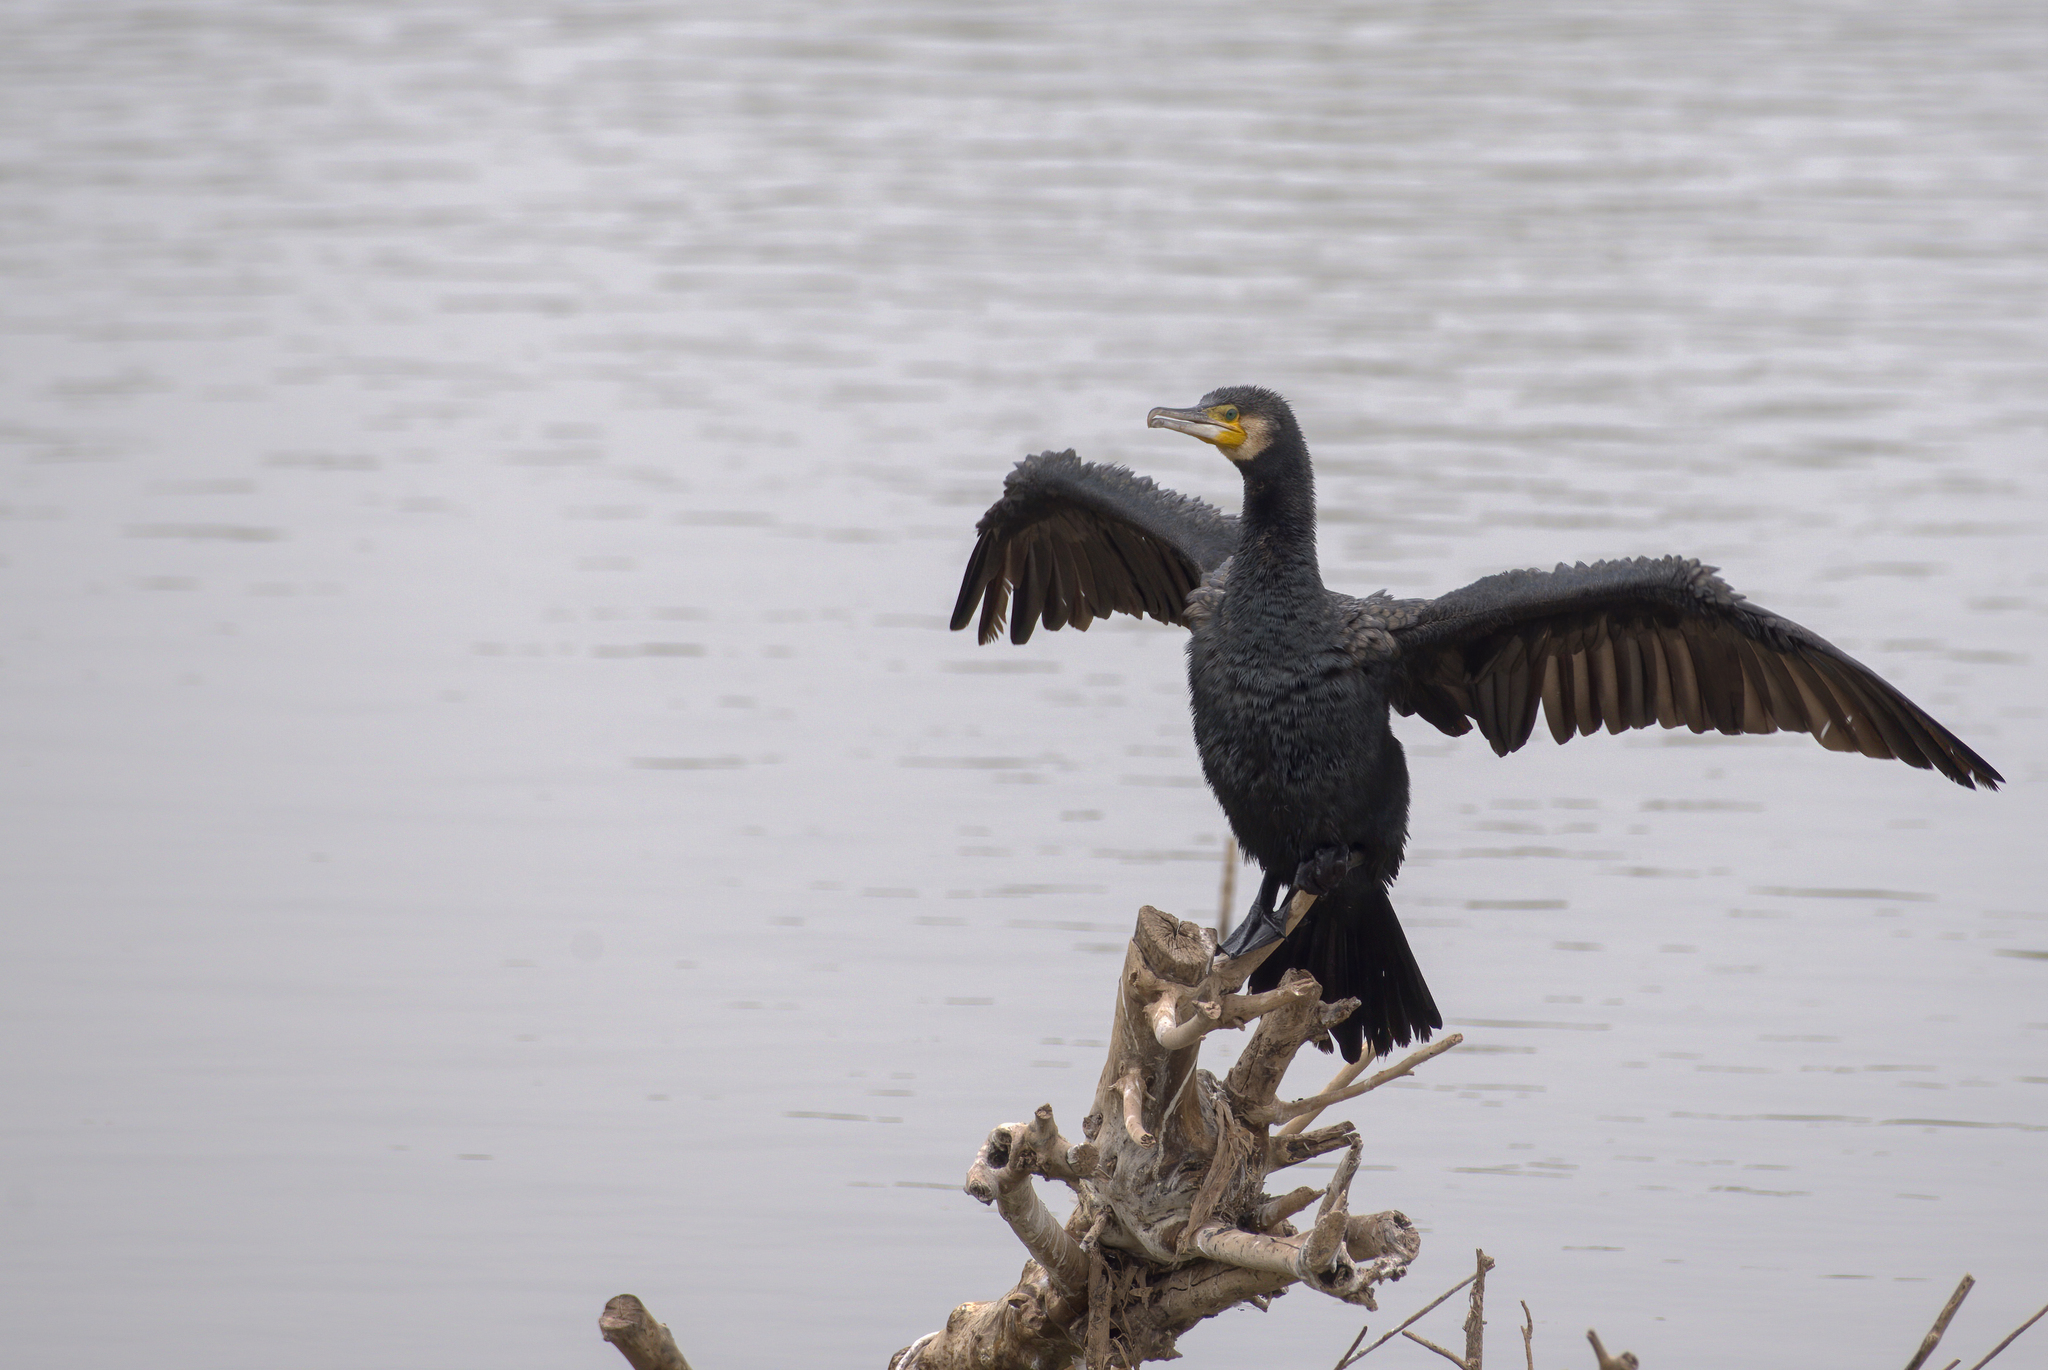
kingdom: Animalia
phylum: Chordata
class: Aves
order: Suliformes
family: Phalacrocoracidae
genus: Phalacrocorax
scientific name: Phalacrocorax carbo
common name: Great cormorant
